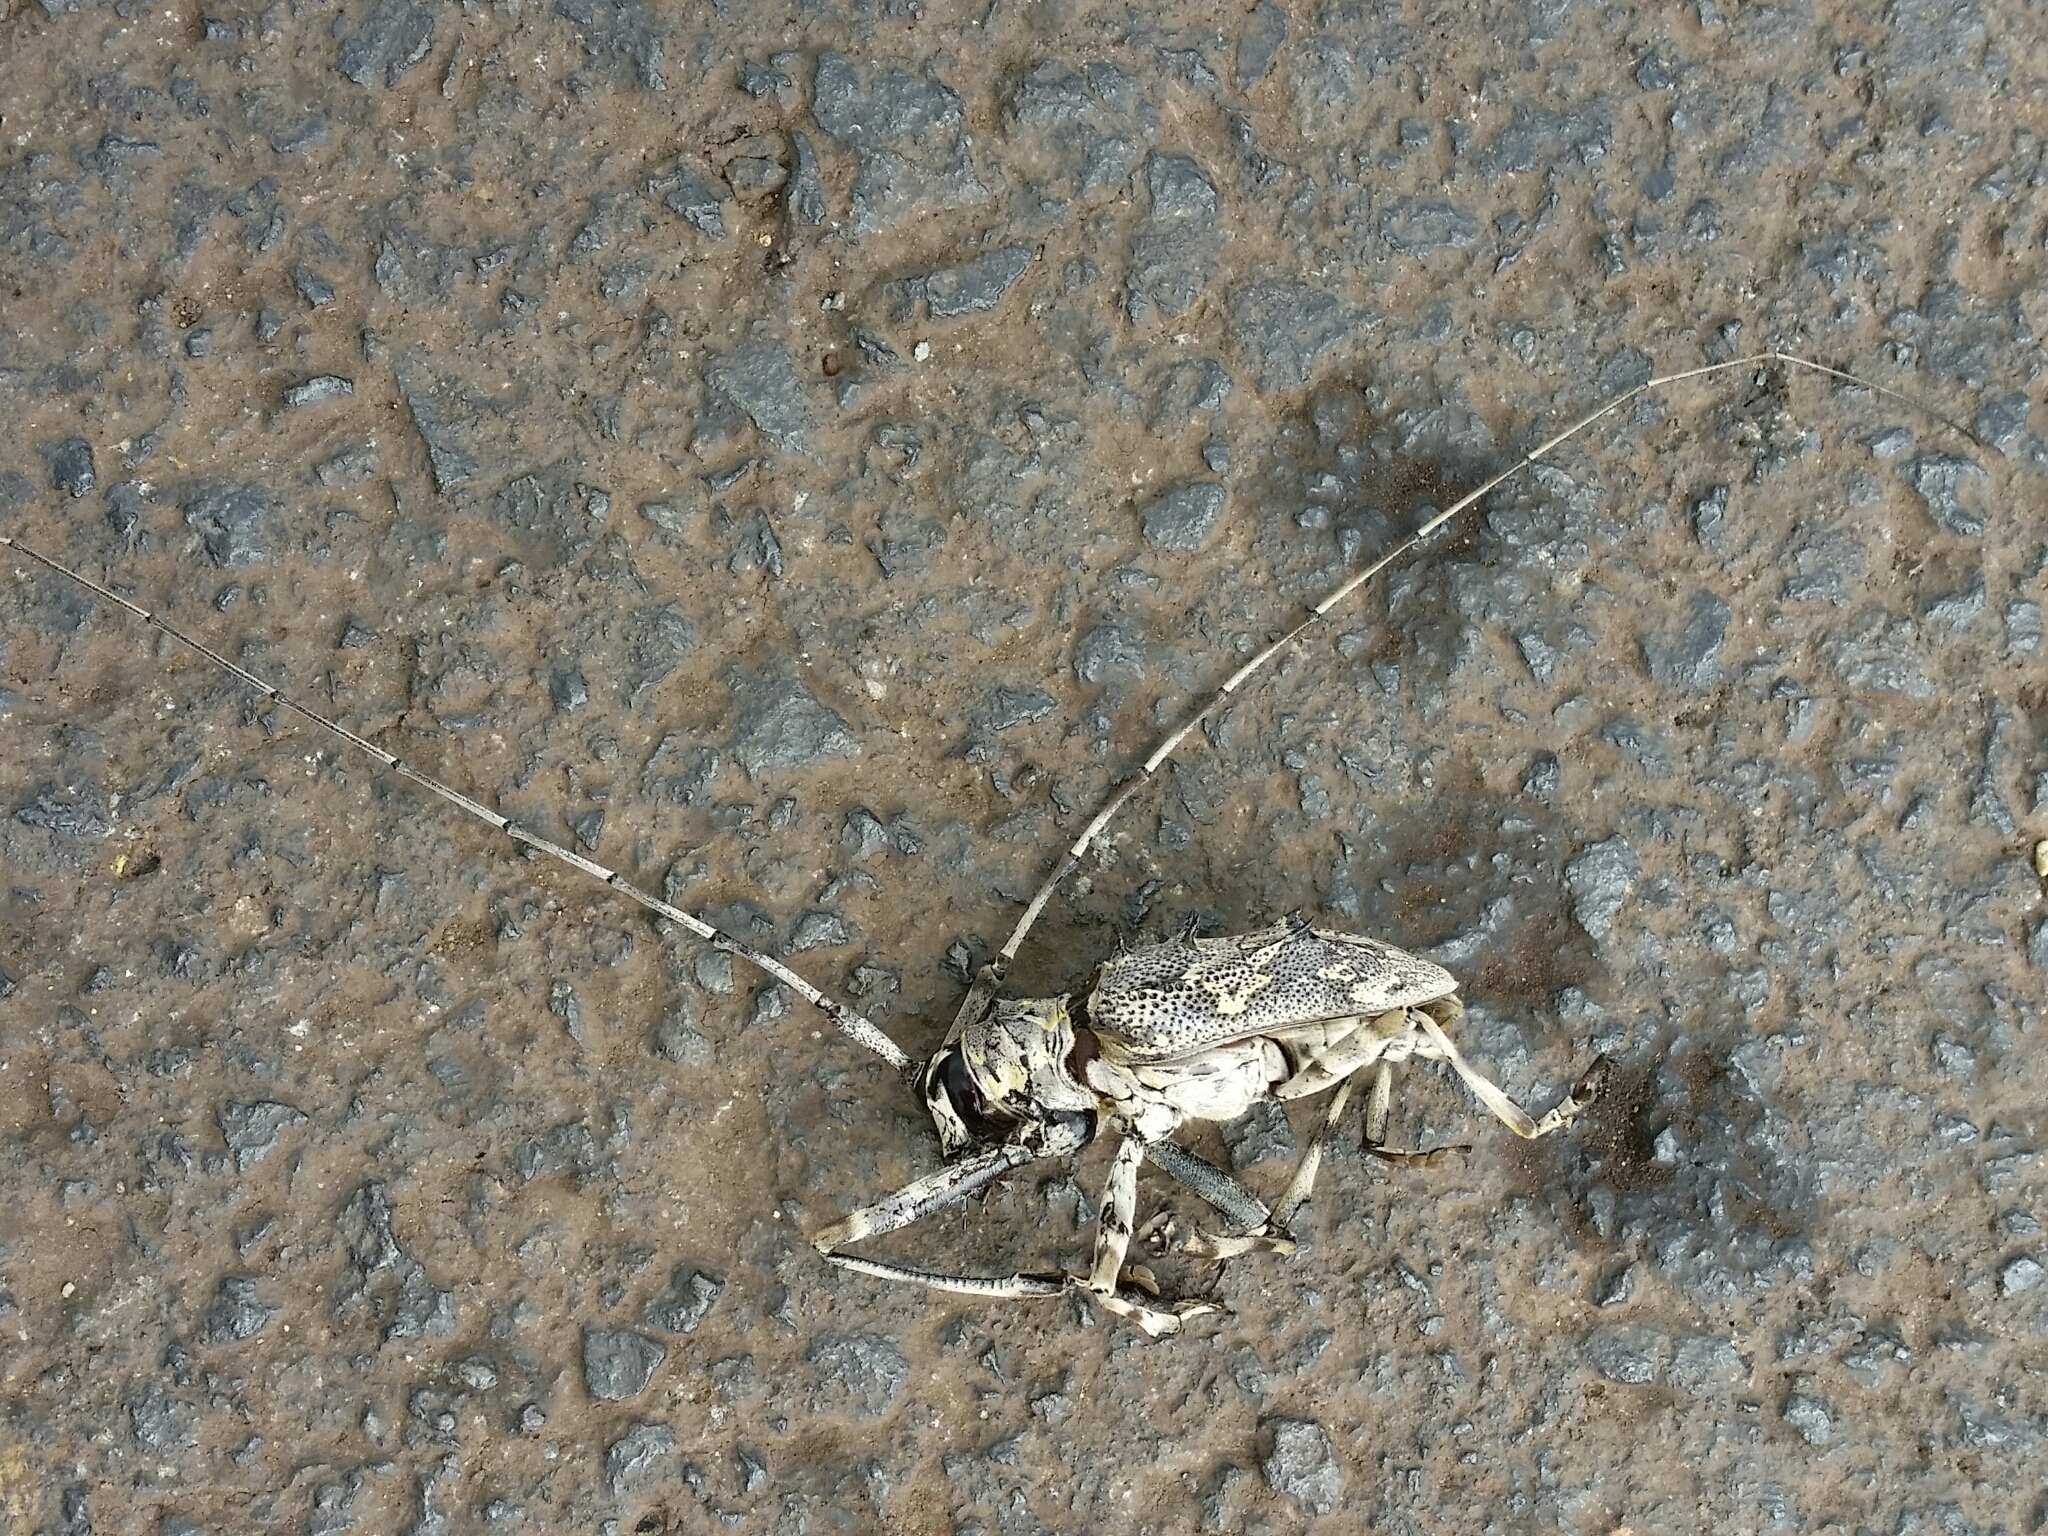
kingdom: Animalia
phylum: Arthropoda
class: Insecta
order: Coleoptera
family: Cerambycidae
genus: Ancylonotus
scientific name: Ancylonotus tribulus
